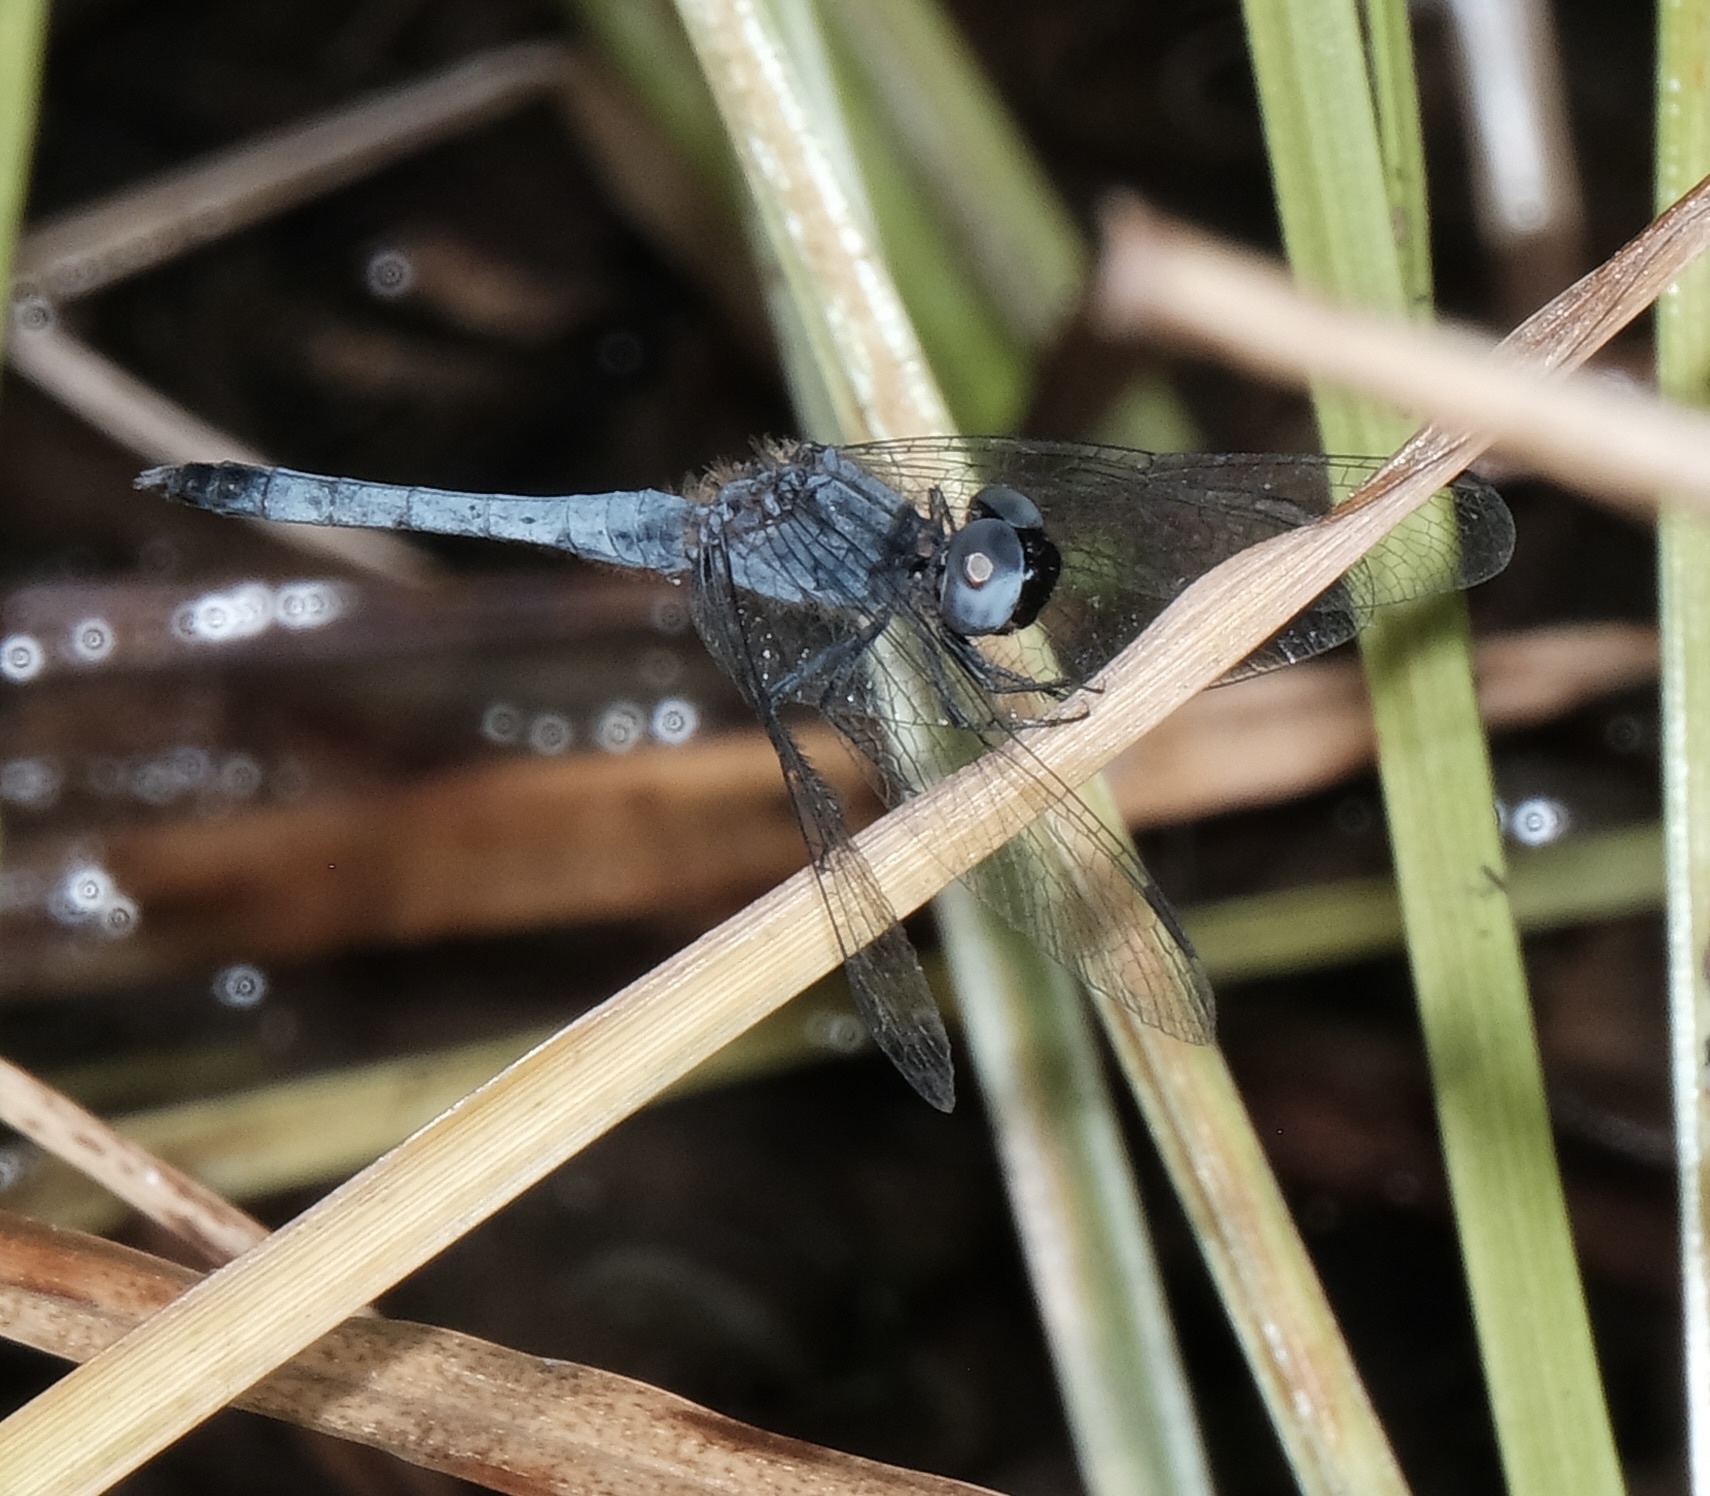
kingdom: Animalia
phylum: Arthropoda
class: Insecta
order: Odonata
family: Libellulidae
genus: Erythrodiplax
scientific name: Erythrodiplax minuscula
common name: Little blue dragonlet
